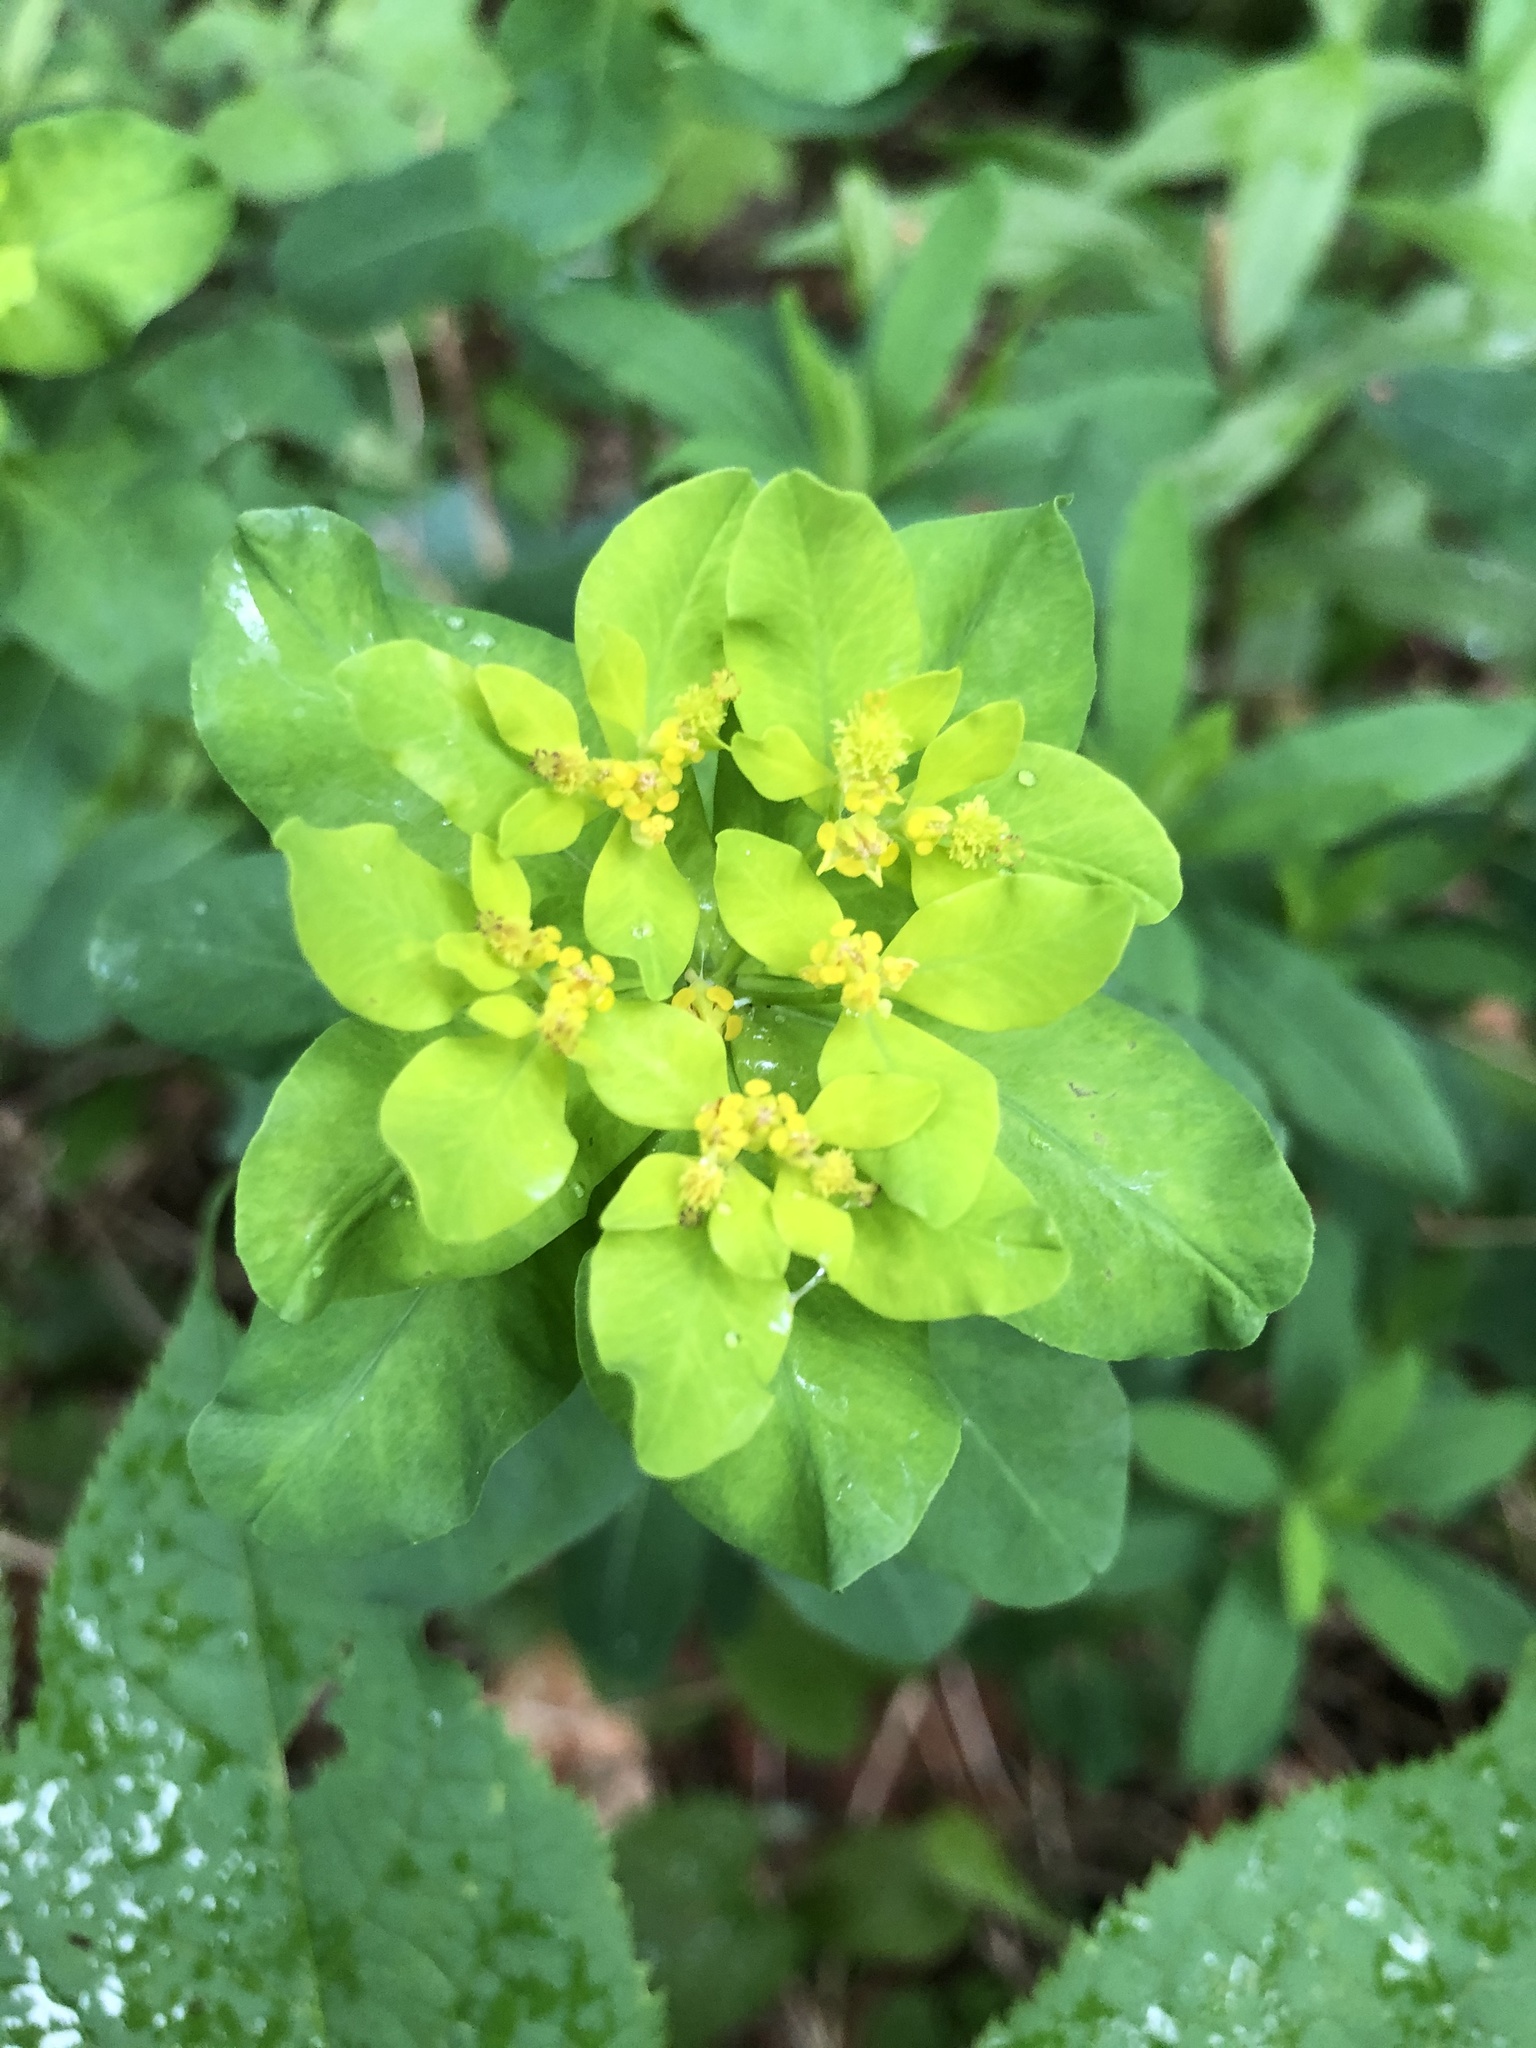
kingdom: Plantae
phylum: Tracheophyta
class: Magnoliopsida
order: Malpighiales
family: Euphorbiaceae
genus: Euphorbia
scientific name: Euphorbia epithymoides
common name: Cushion spurge
